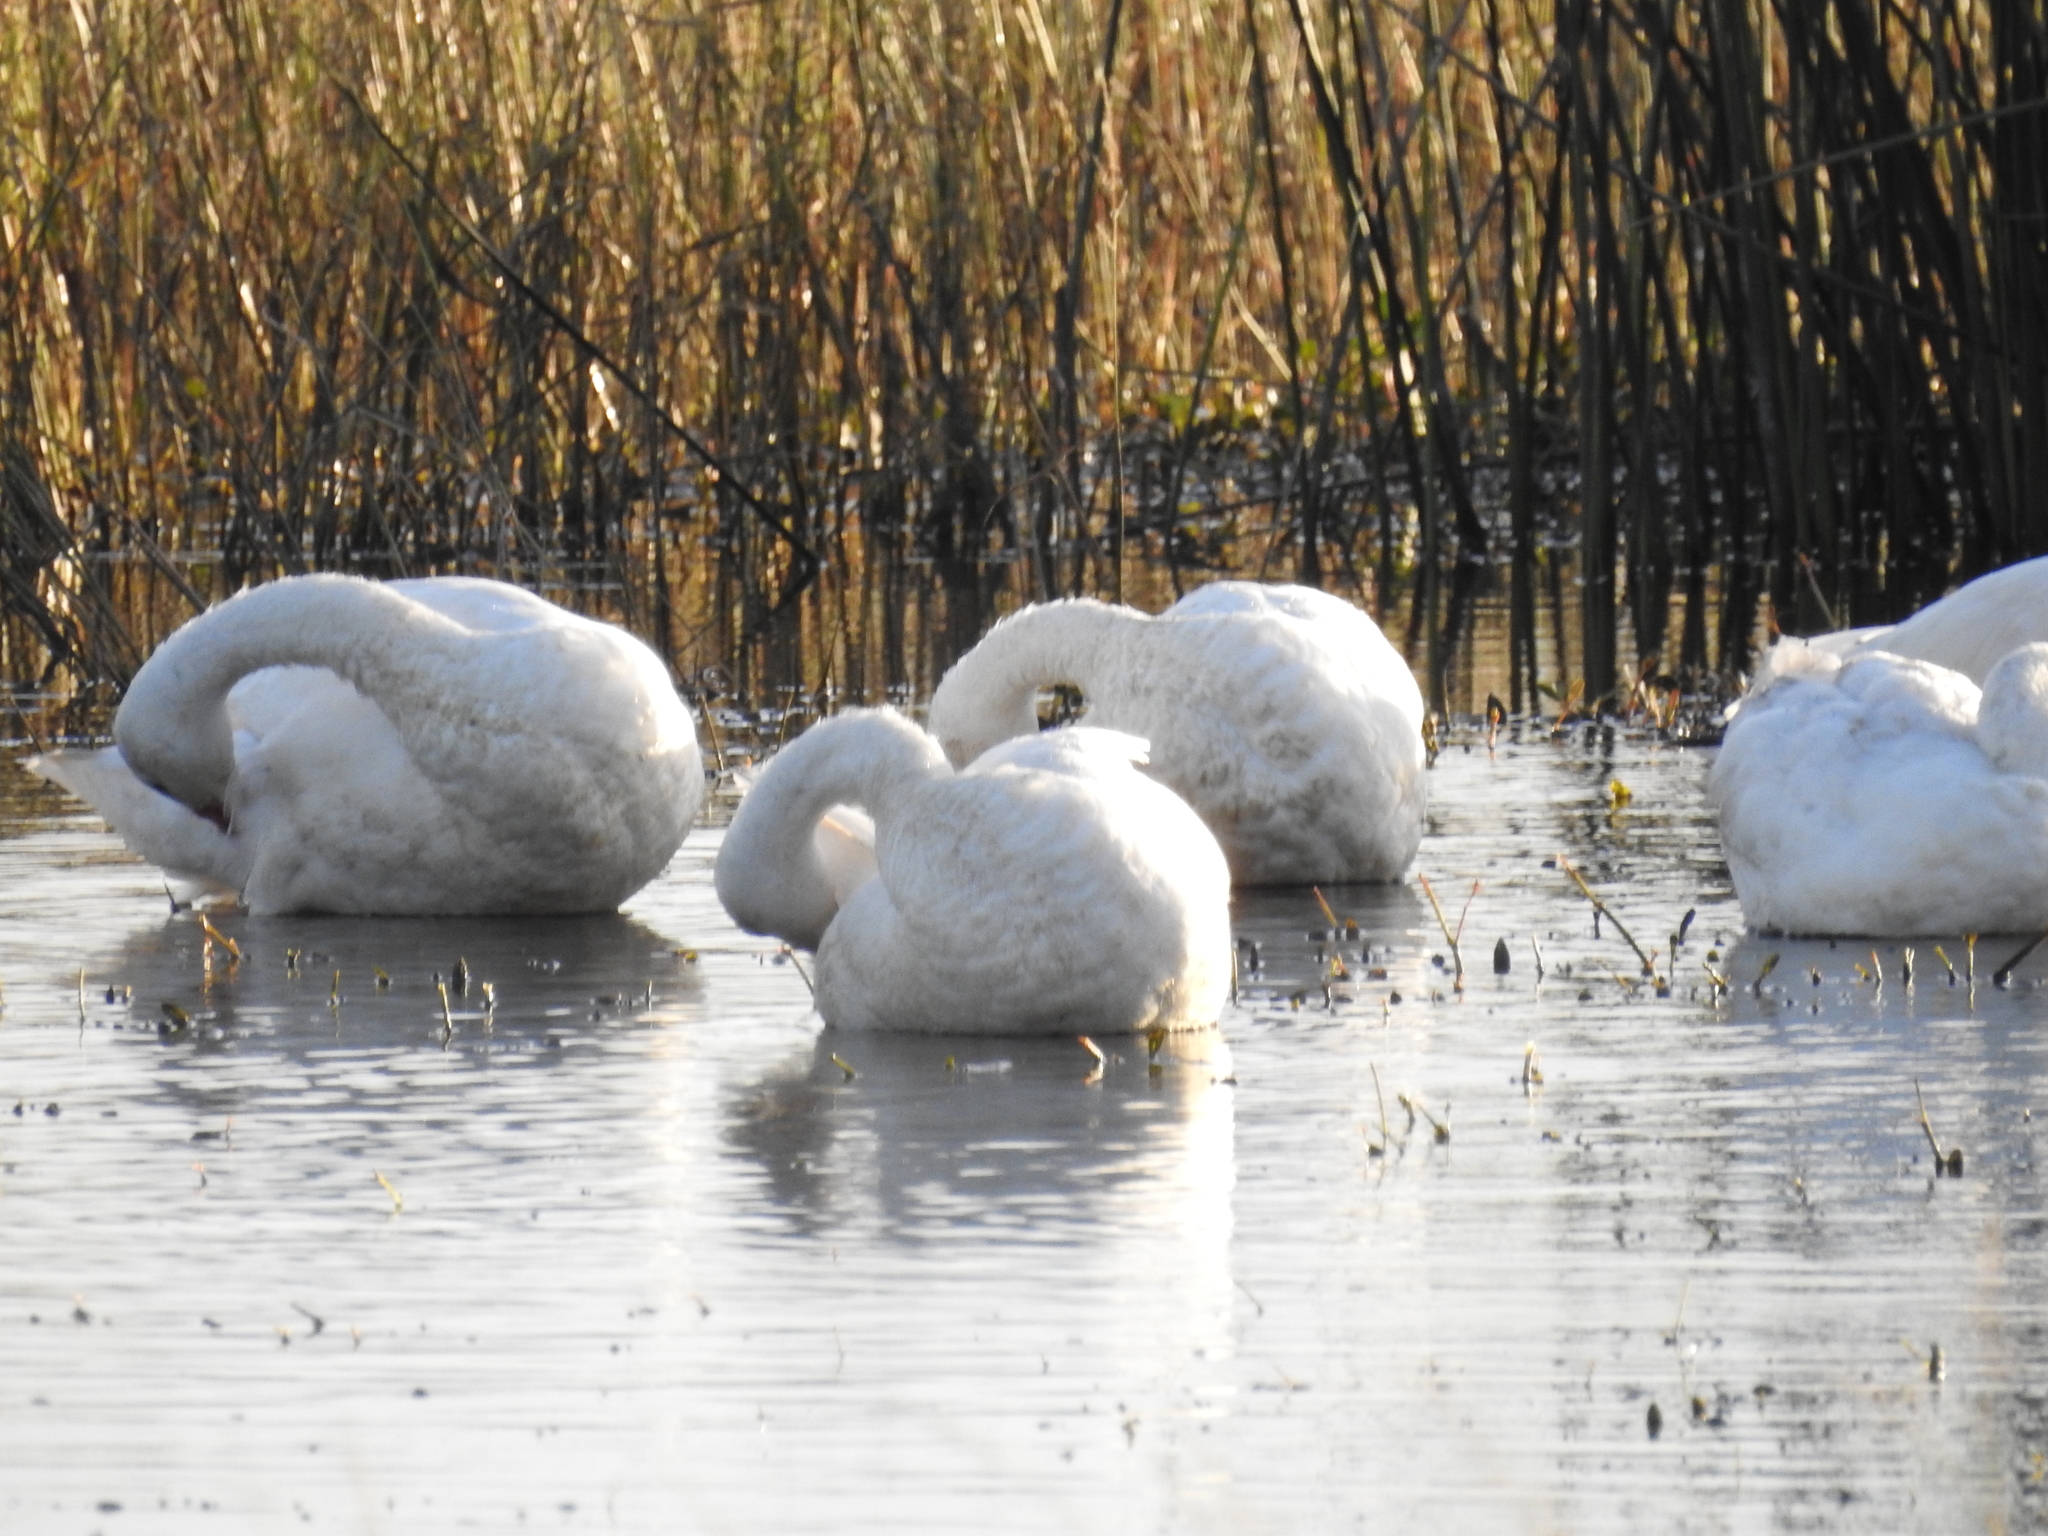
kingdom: Animalia
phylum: Chordata
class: Aves
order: Anseriformes
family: Anatidae
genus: Coscoroba
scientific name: Coscoroba coscoroba
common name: Coscoroba swan
